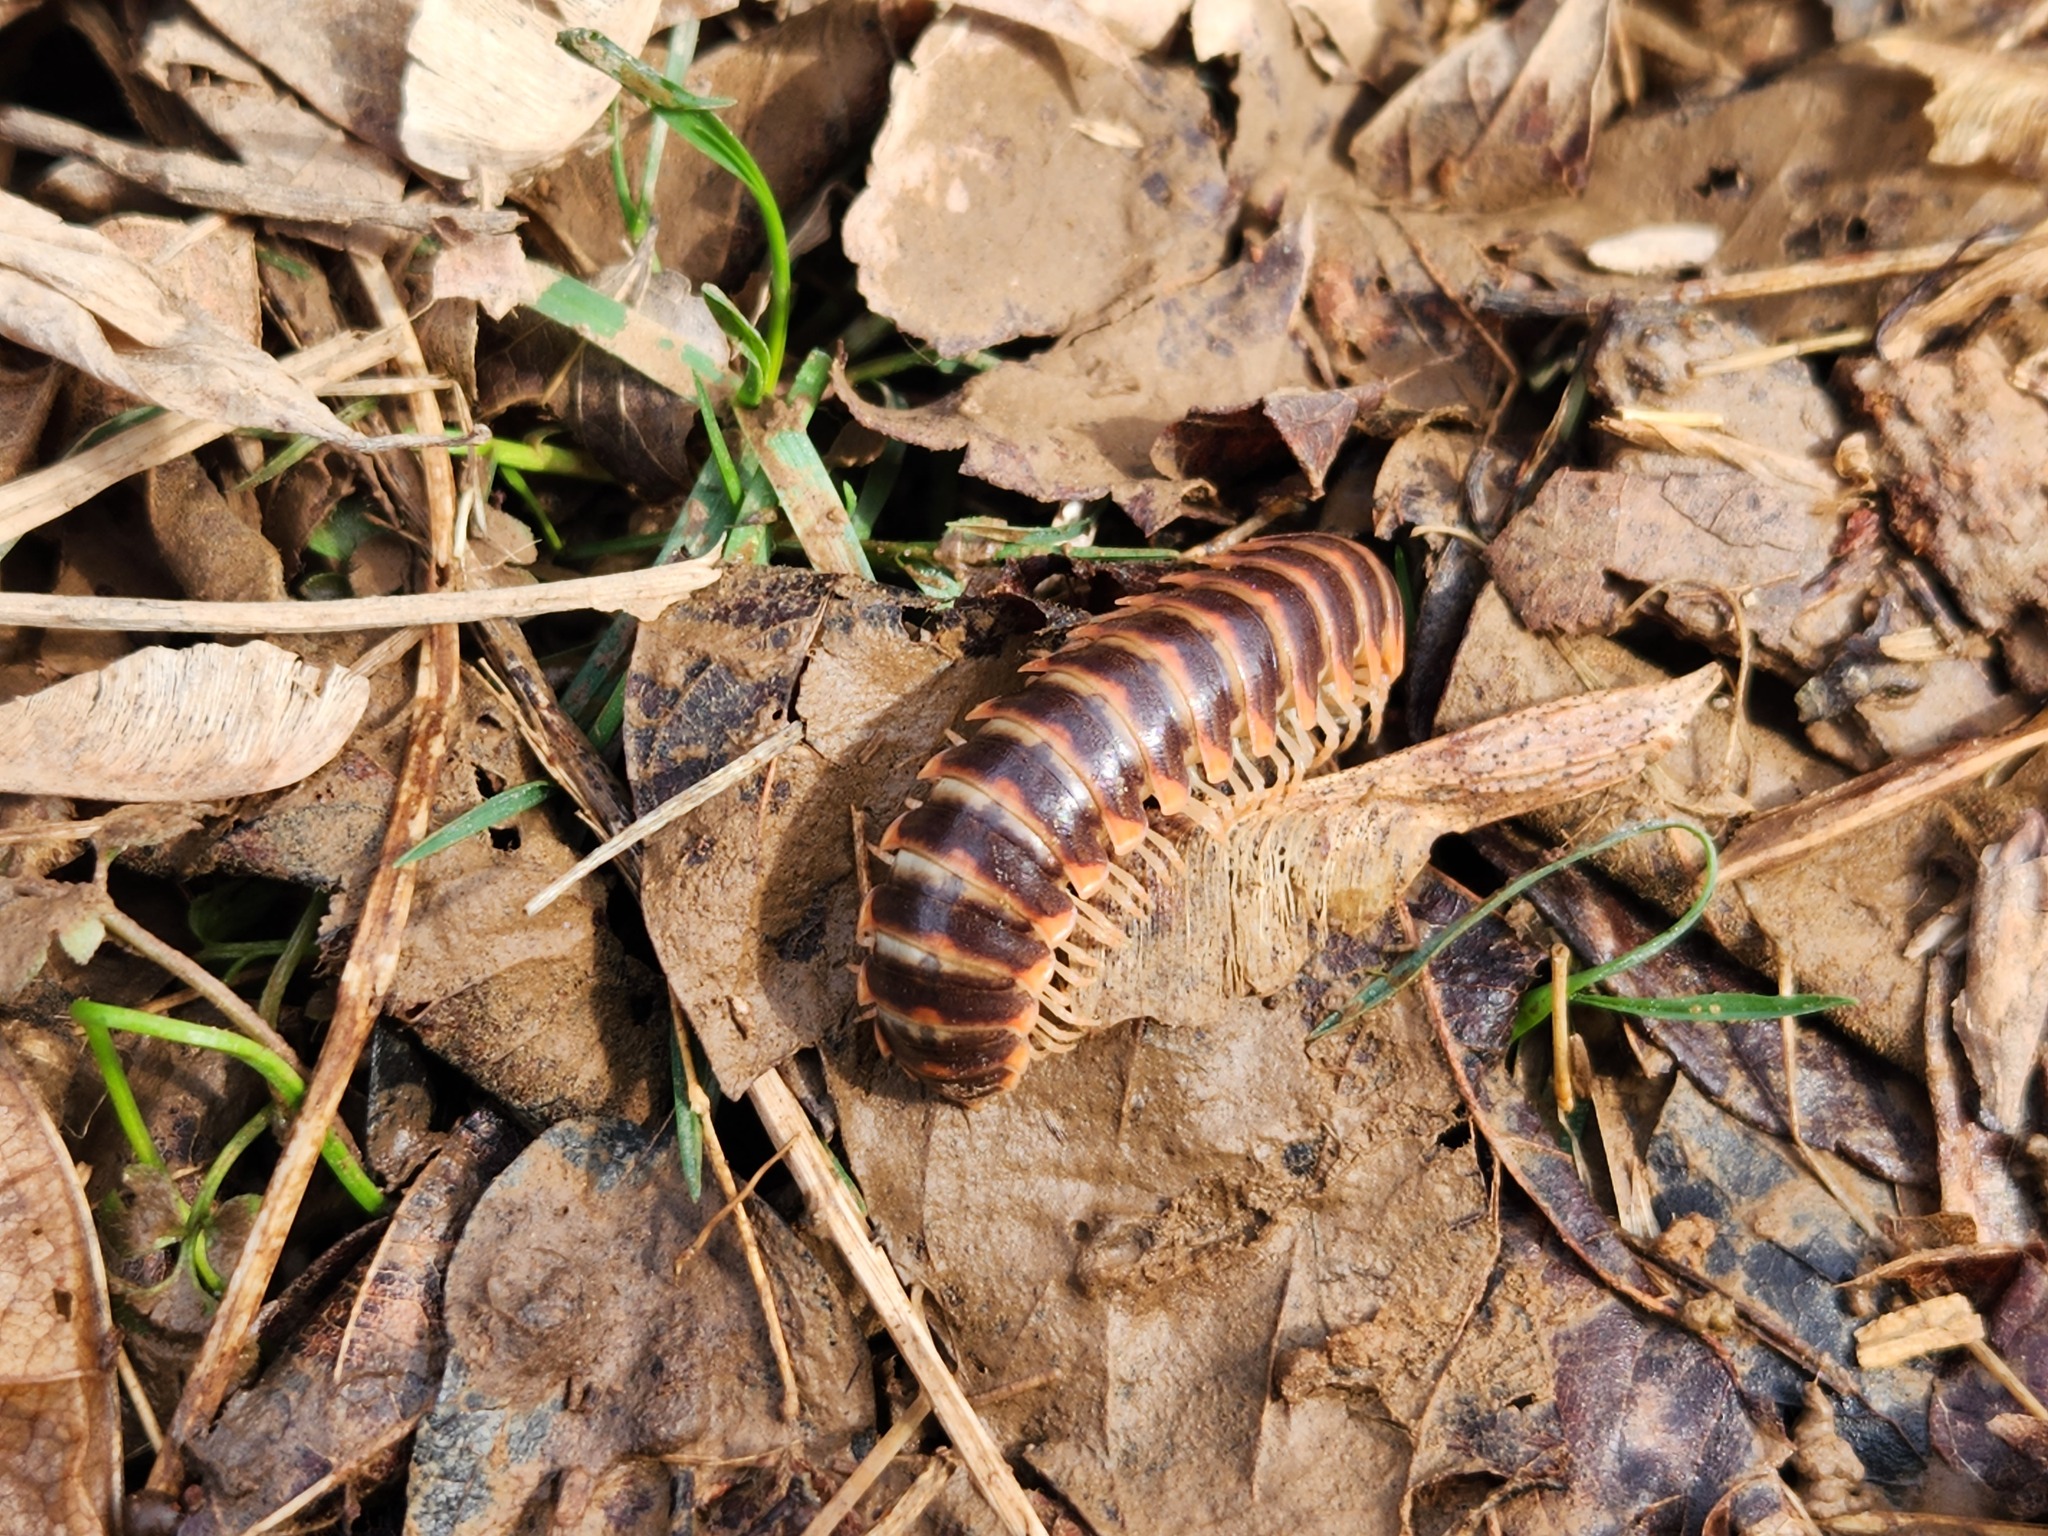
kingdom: Animalia
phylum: Arthropoda
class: Diplopoda
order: Polydesmida
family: Xystodesmidae
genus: Pleuroloma
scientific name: Pleuroloma flavipes
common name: Yellow-legged pleuroloma
